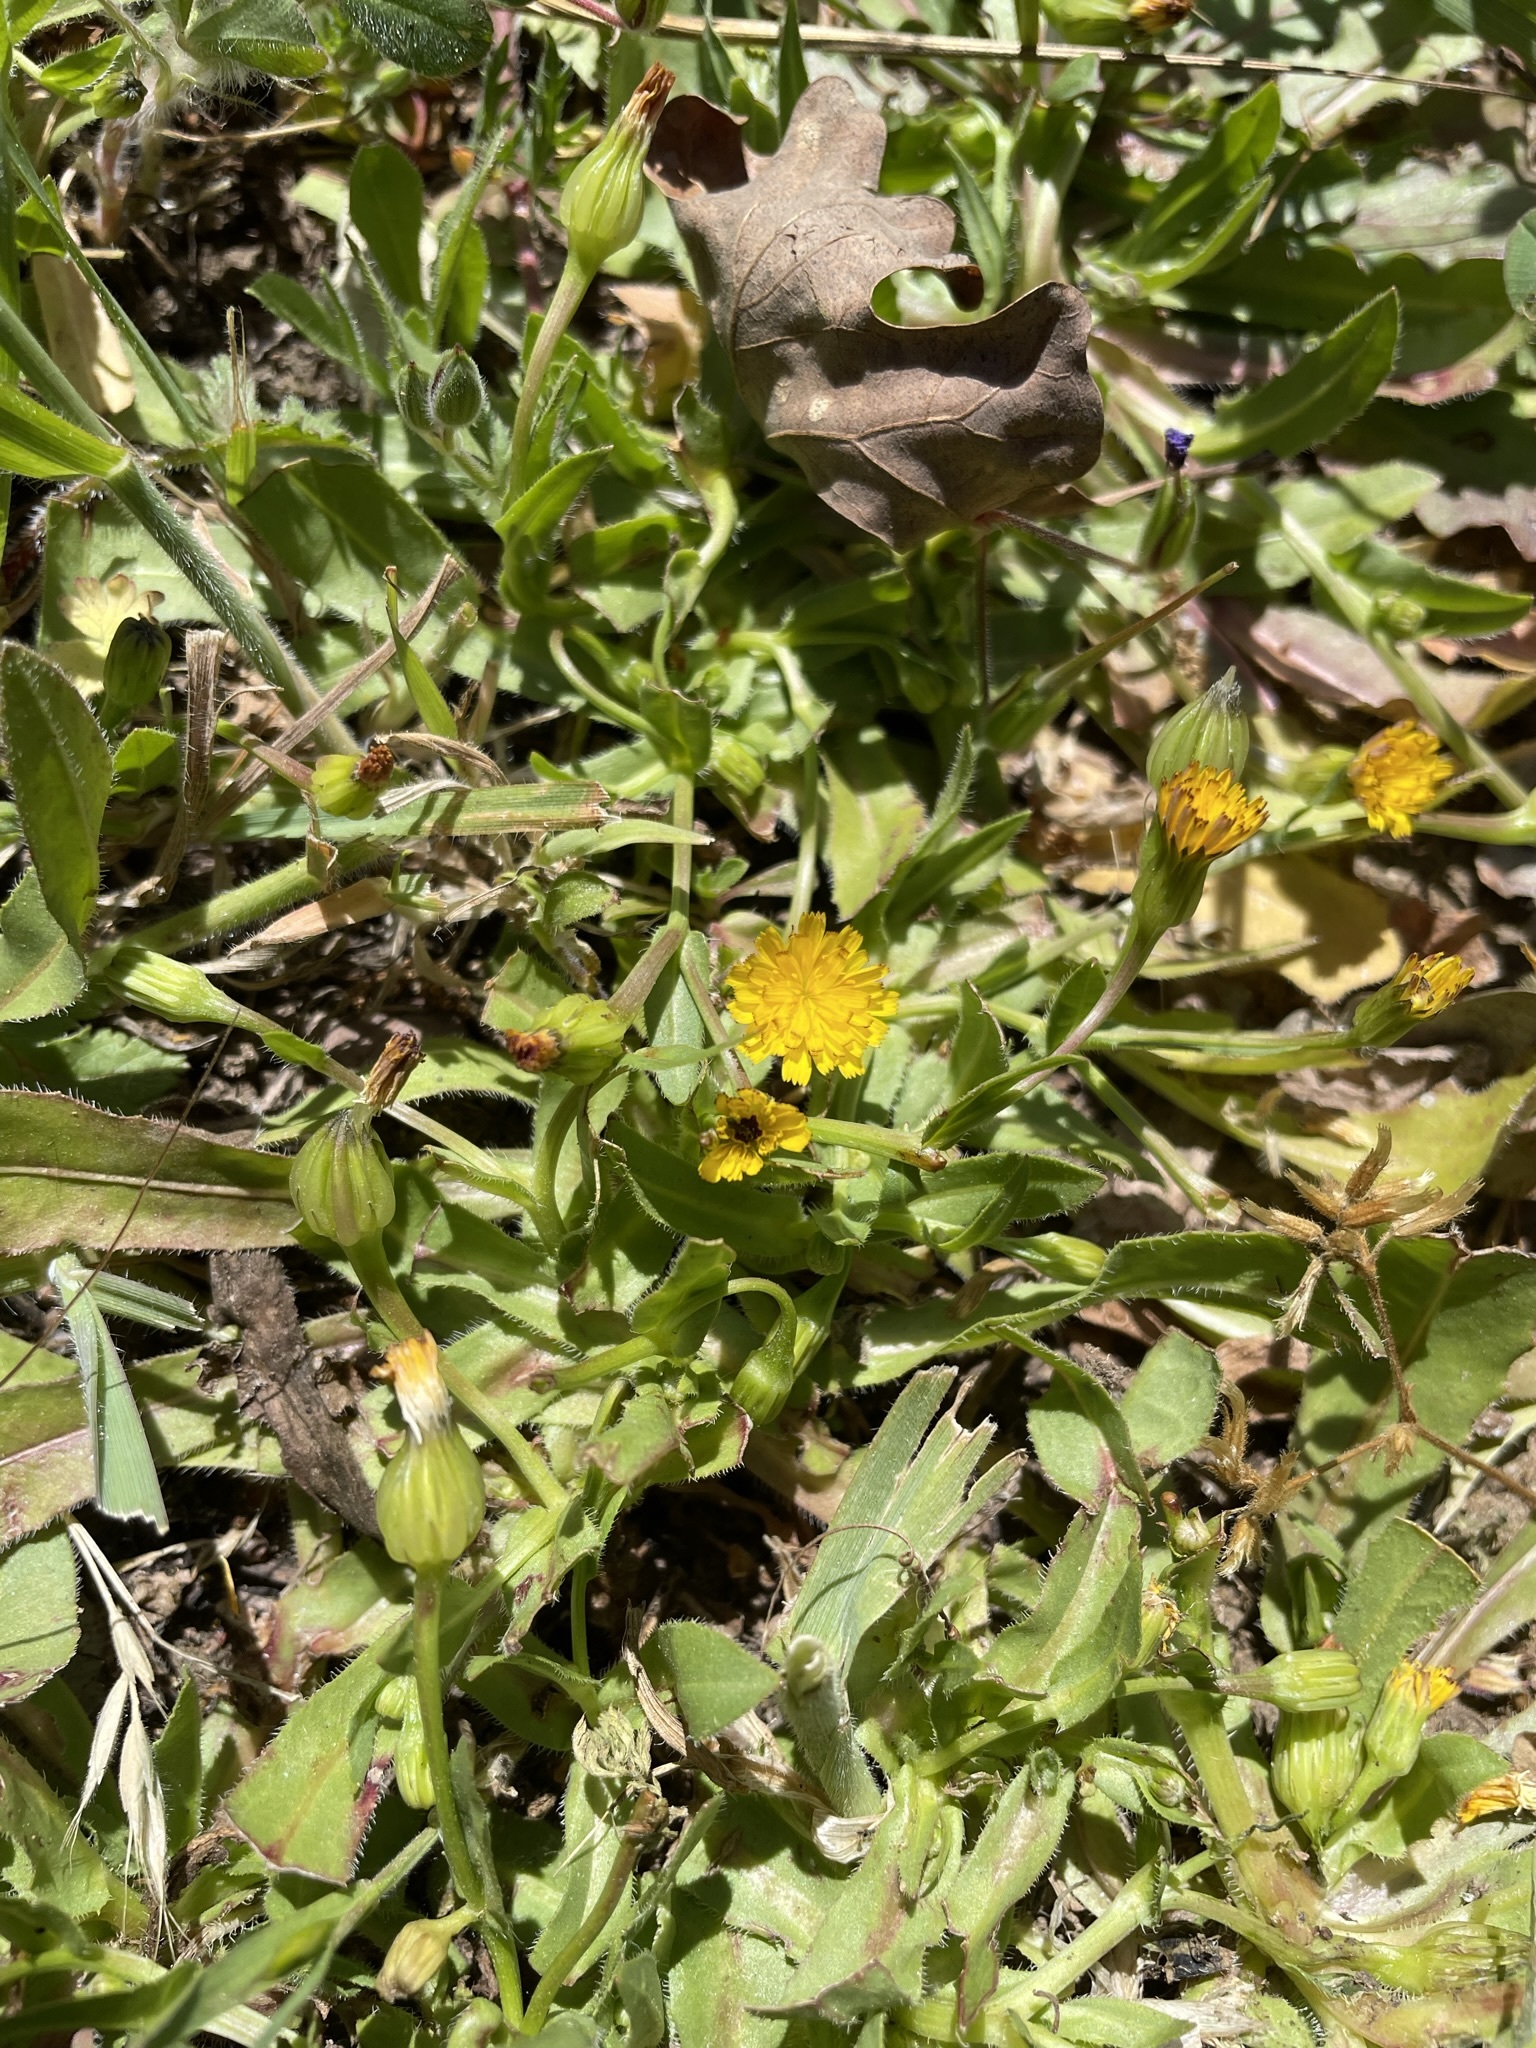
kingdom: Plantae
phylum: Tracheophyta
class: Magnoliopsida
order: Asterales
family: Asteraceae
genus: Hedypnois
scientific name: Hedypnois rhagadioloides
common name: Cretan weed
